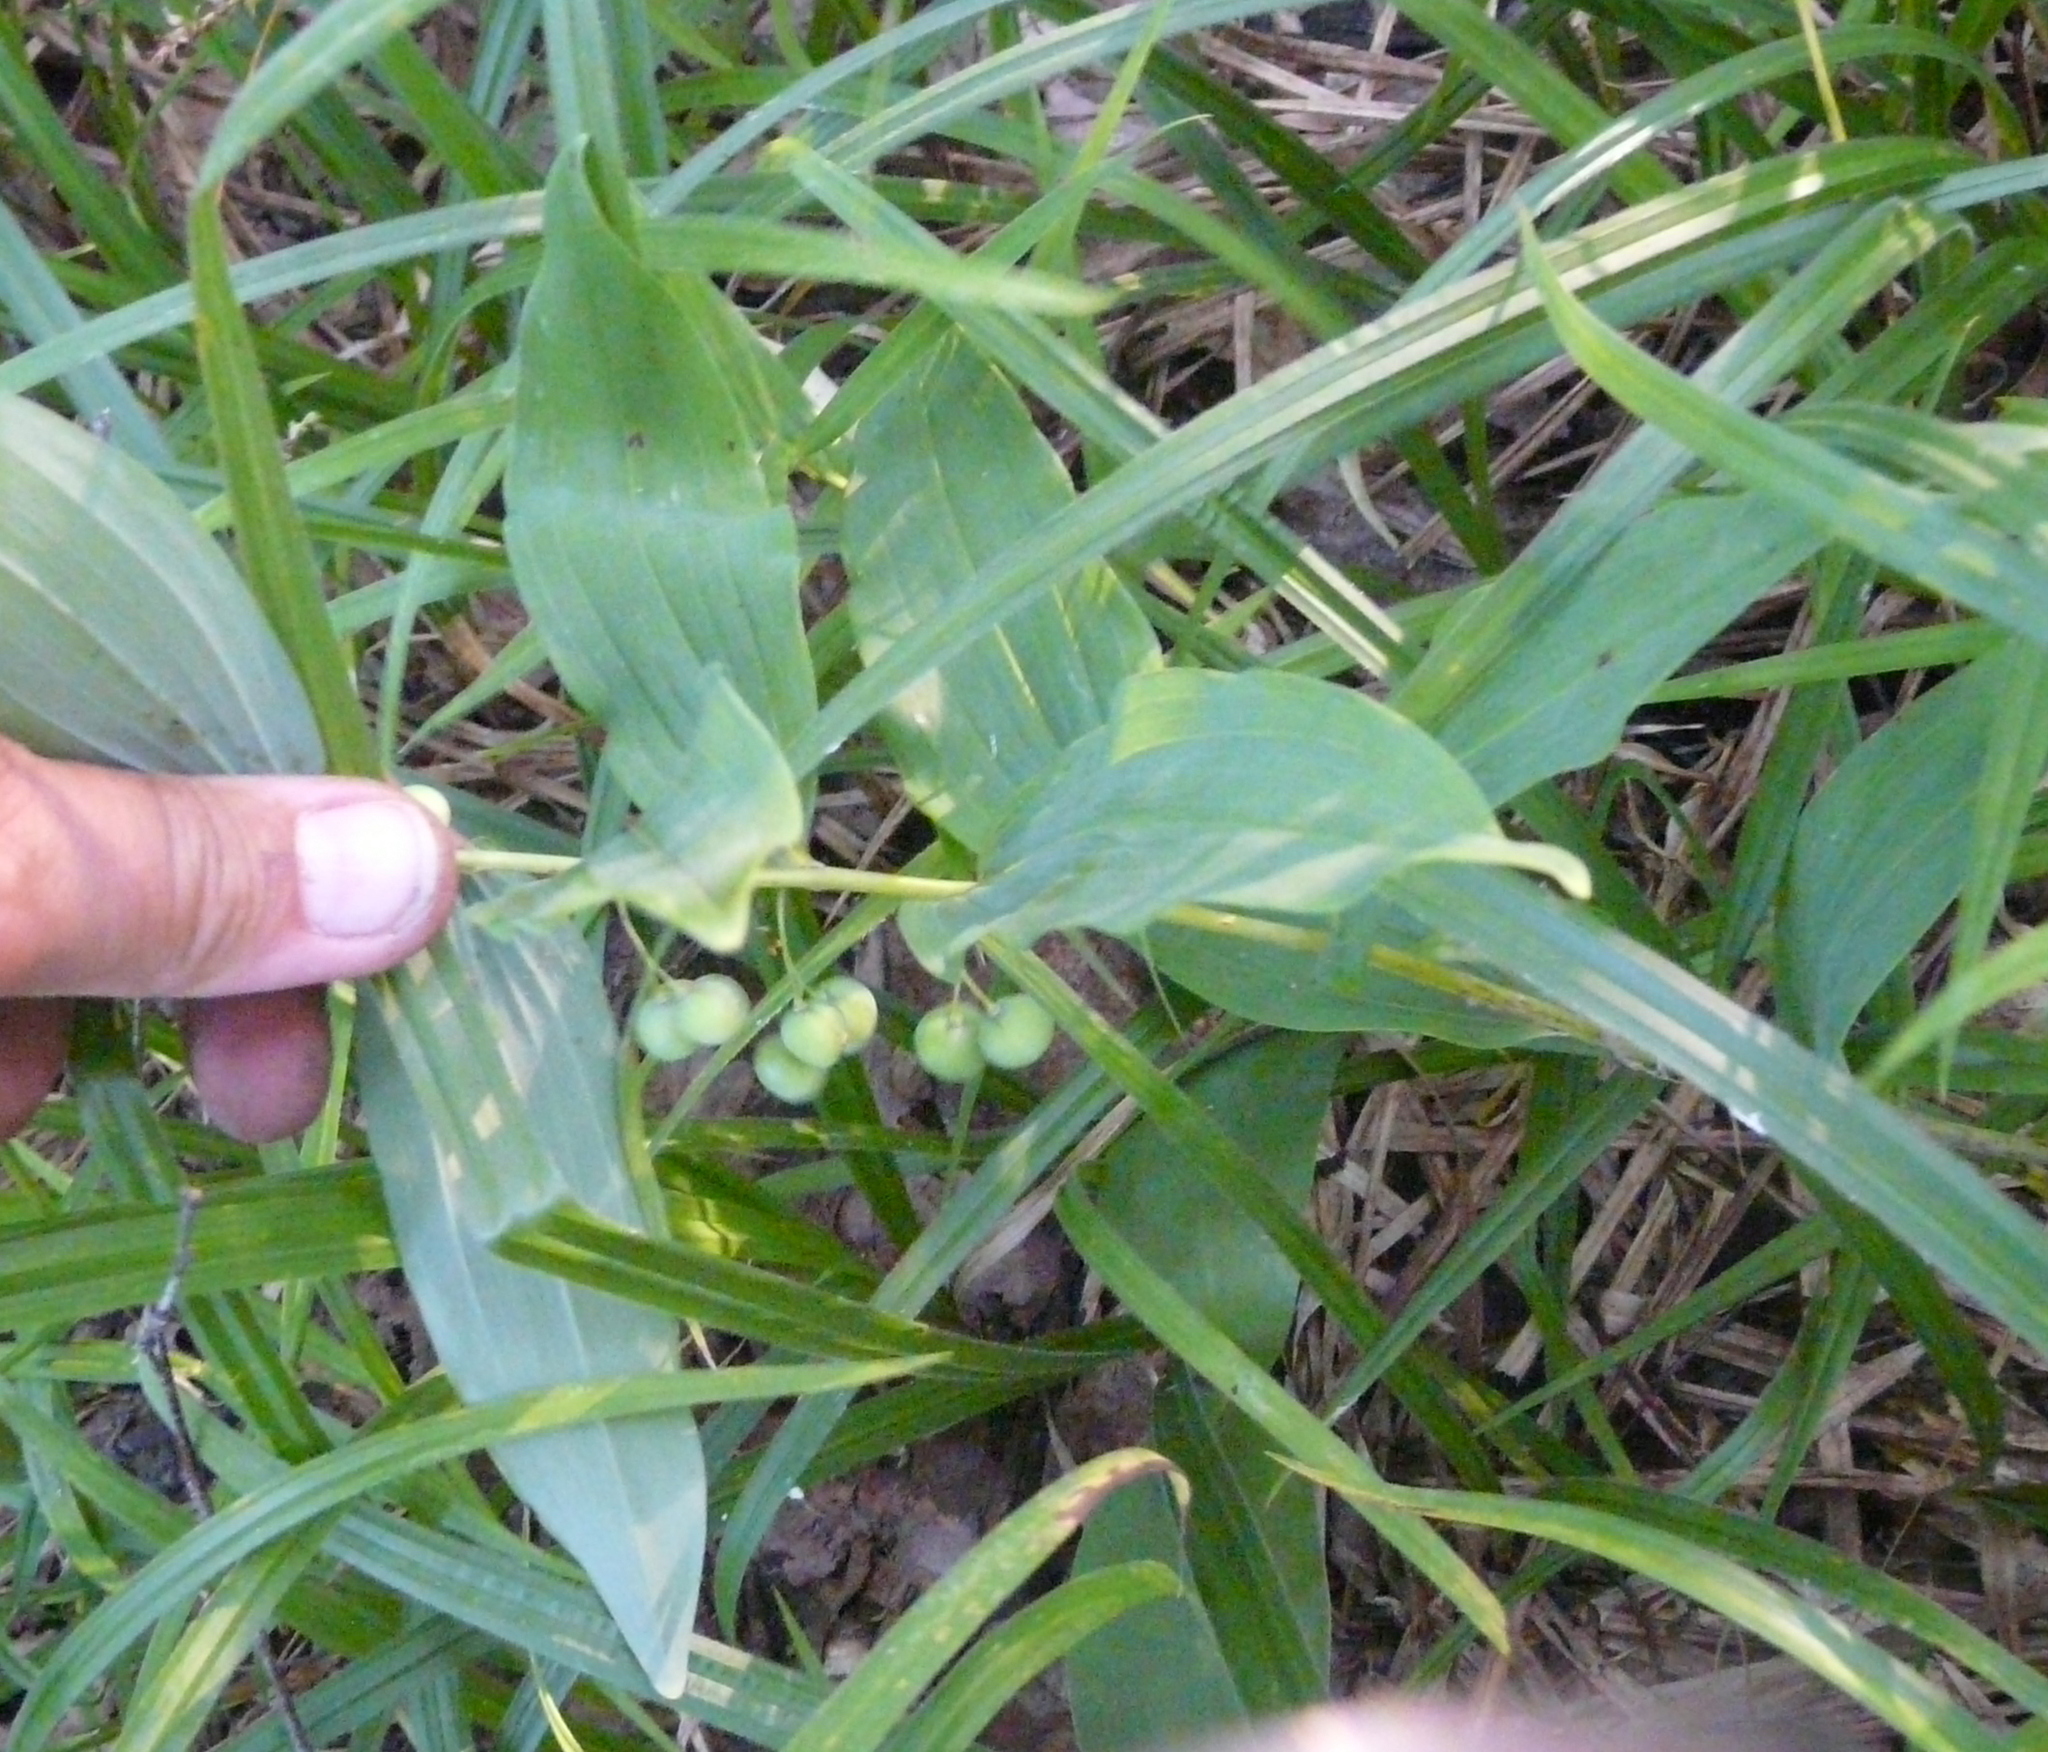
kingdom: Plantae
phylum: Tracheophyta
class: Liliopsida
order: Asparagales
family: Asparagaceae
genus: Polygonatum
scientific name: Polygonatum multiflorum
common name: Solomon's-seal
